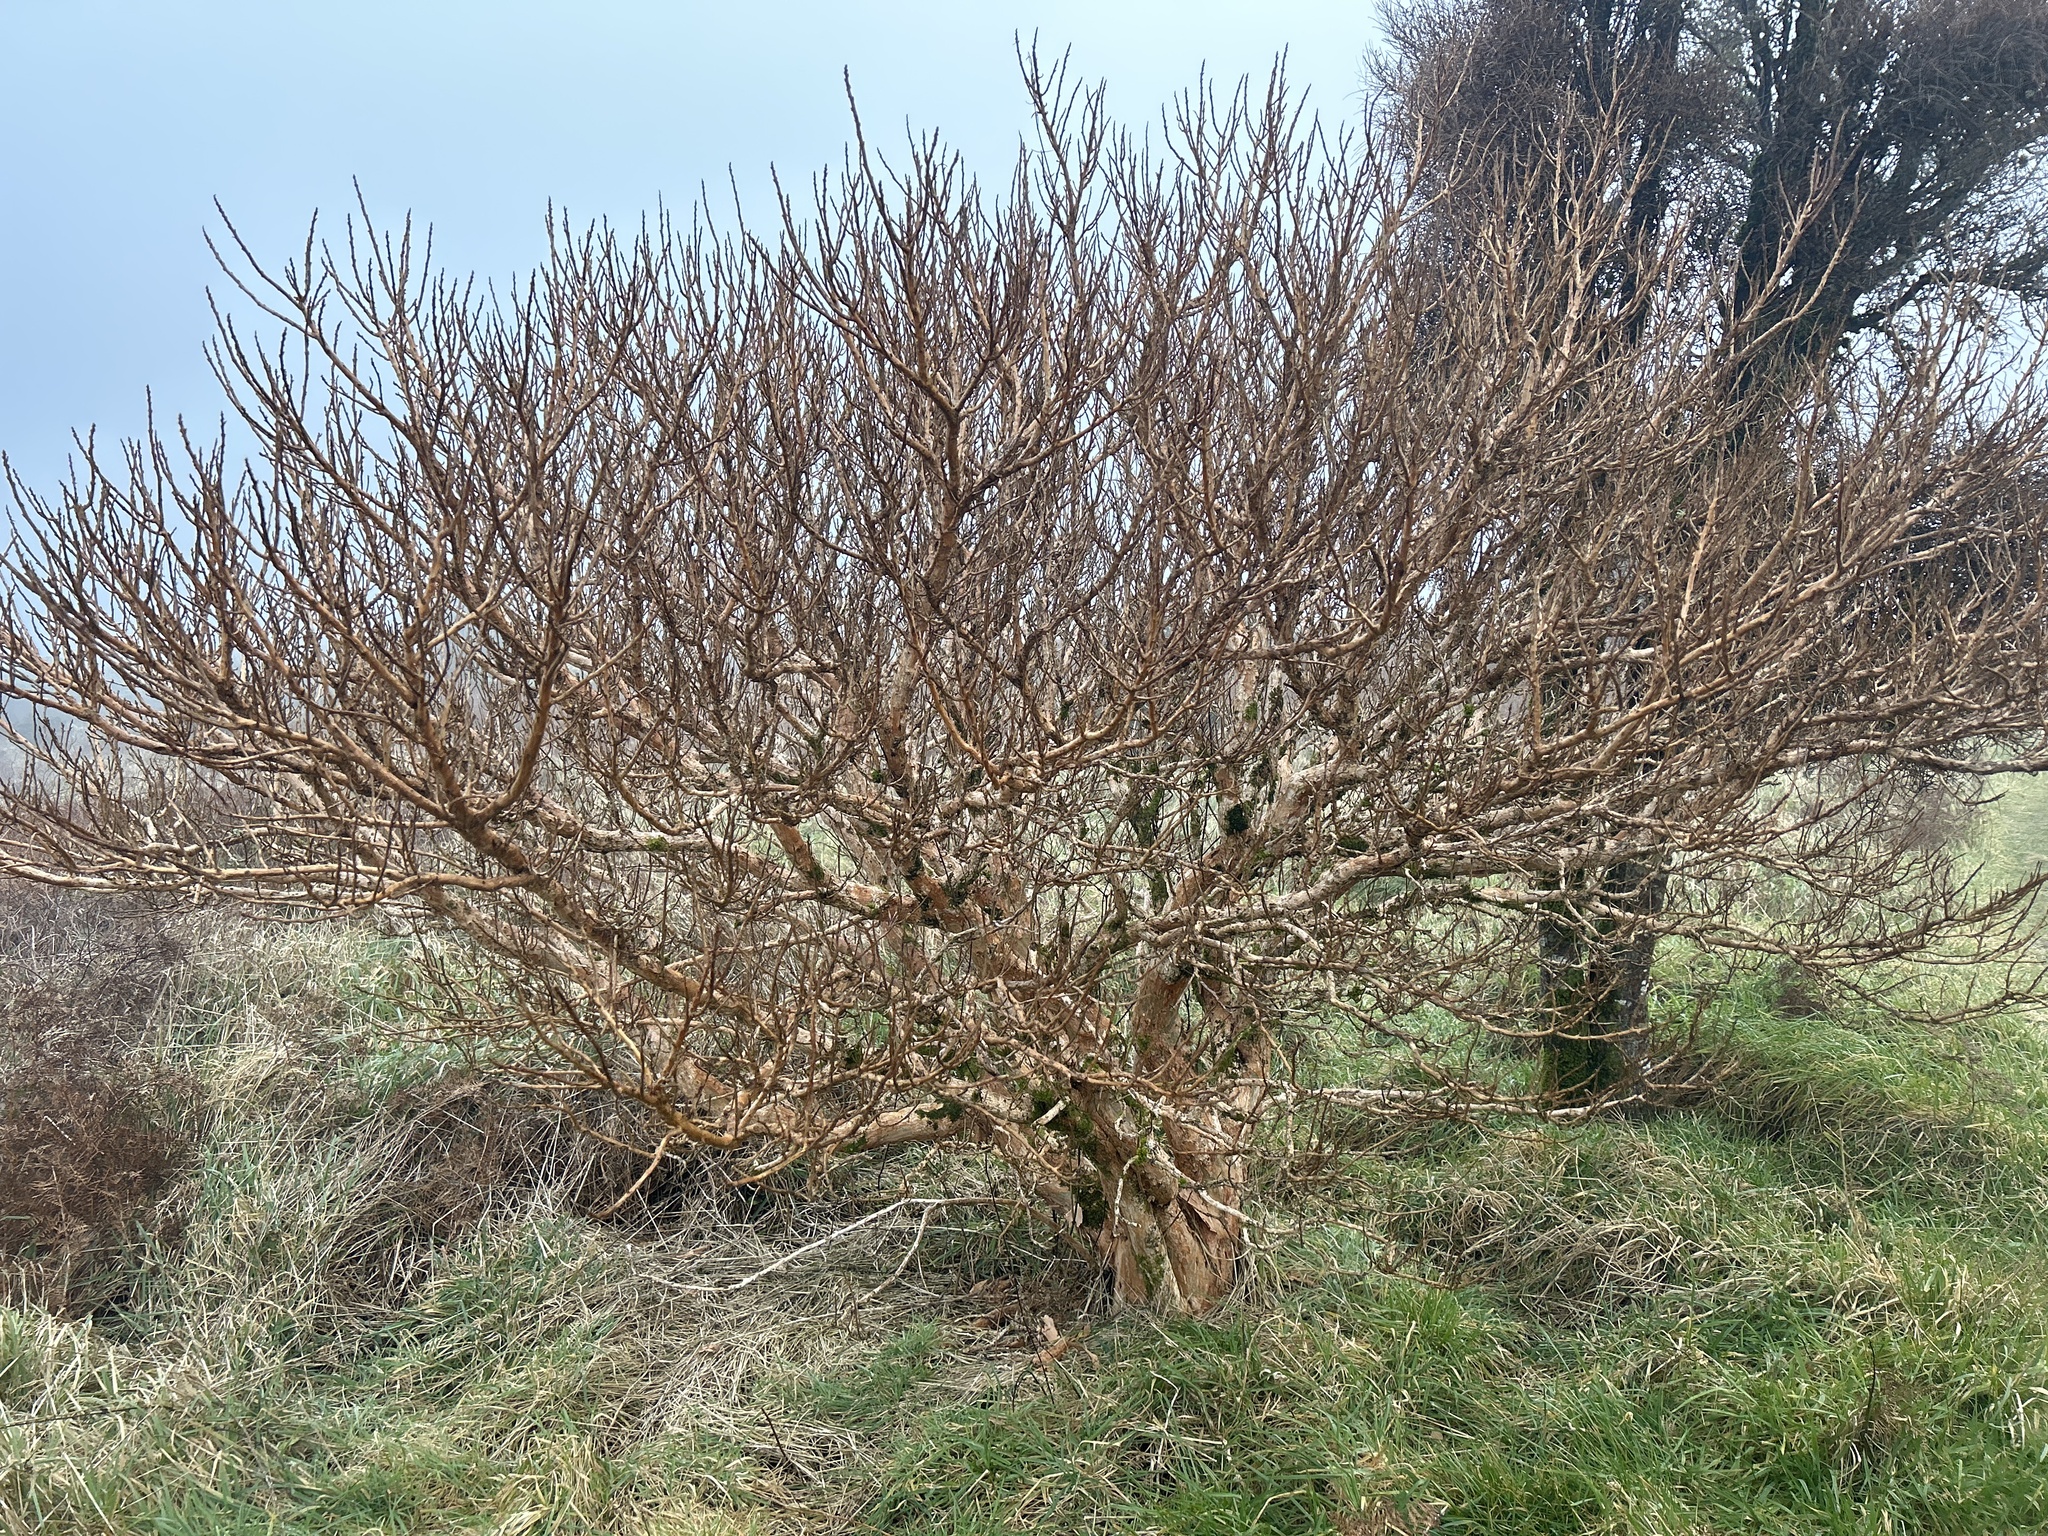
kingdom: Plantae
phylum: Tracheophyta
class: Magnoliopsida
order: Myrtales
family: Onagraceae
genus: Fuchsia
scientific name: Fuchsia excorticata
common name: Tree fuchsia
